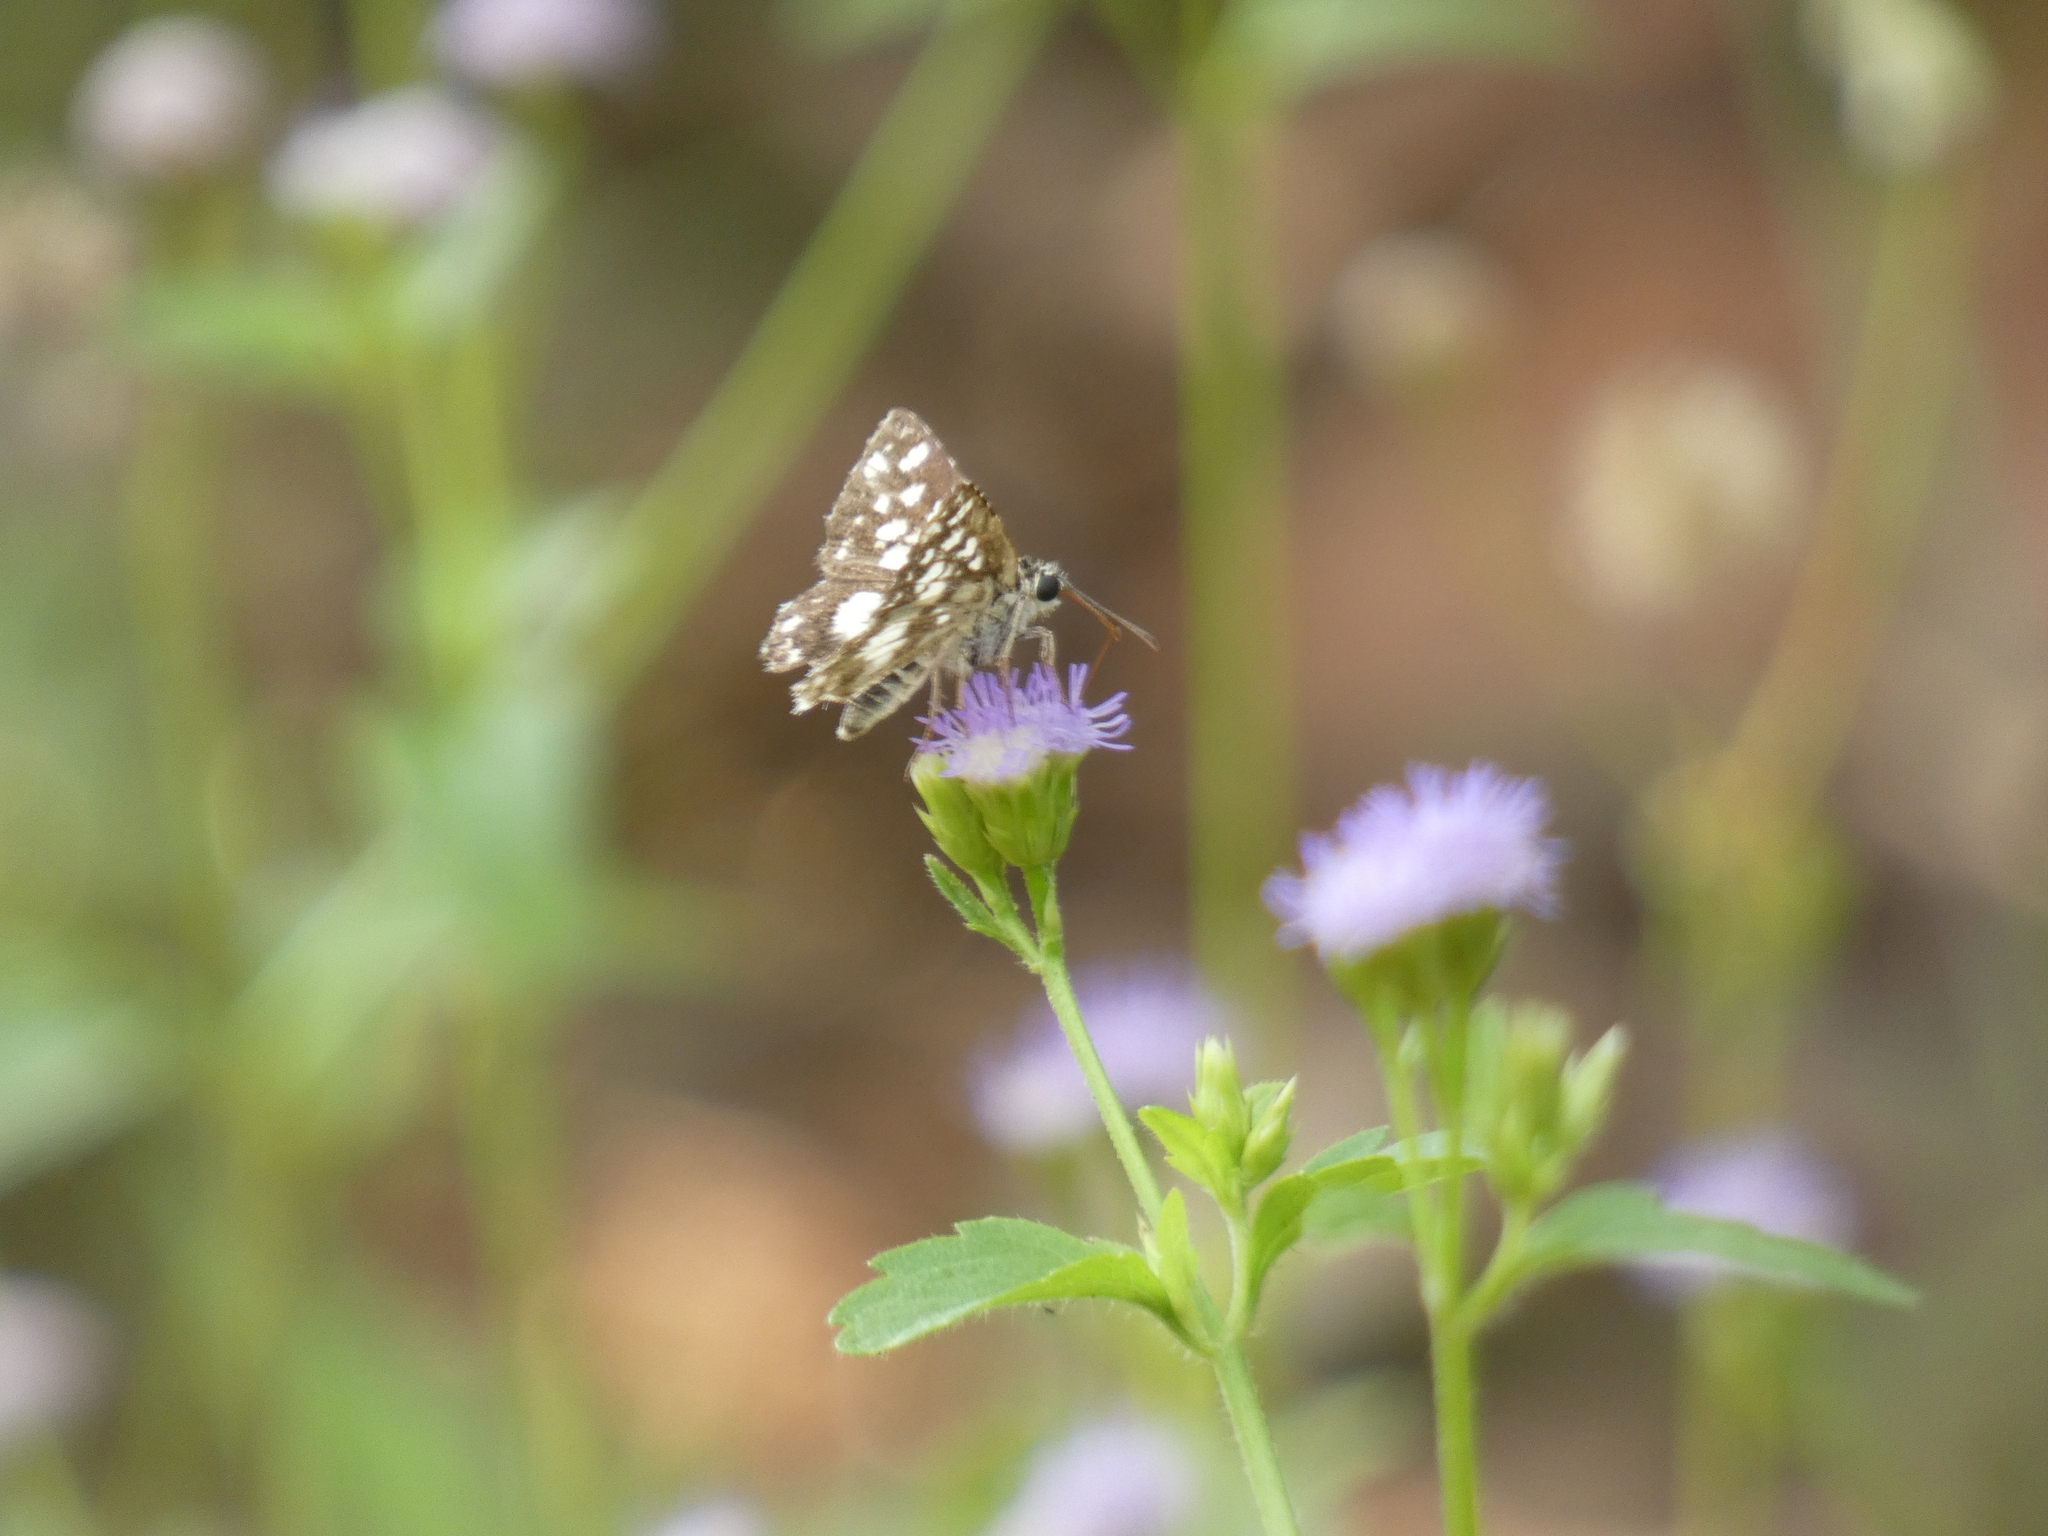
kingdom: Animalia
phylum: Arthropoda
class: Insecta
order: Lepidoptera
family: Hesperiidae
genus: Ernsta
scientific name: Ernsta
